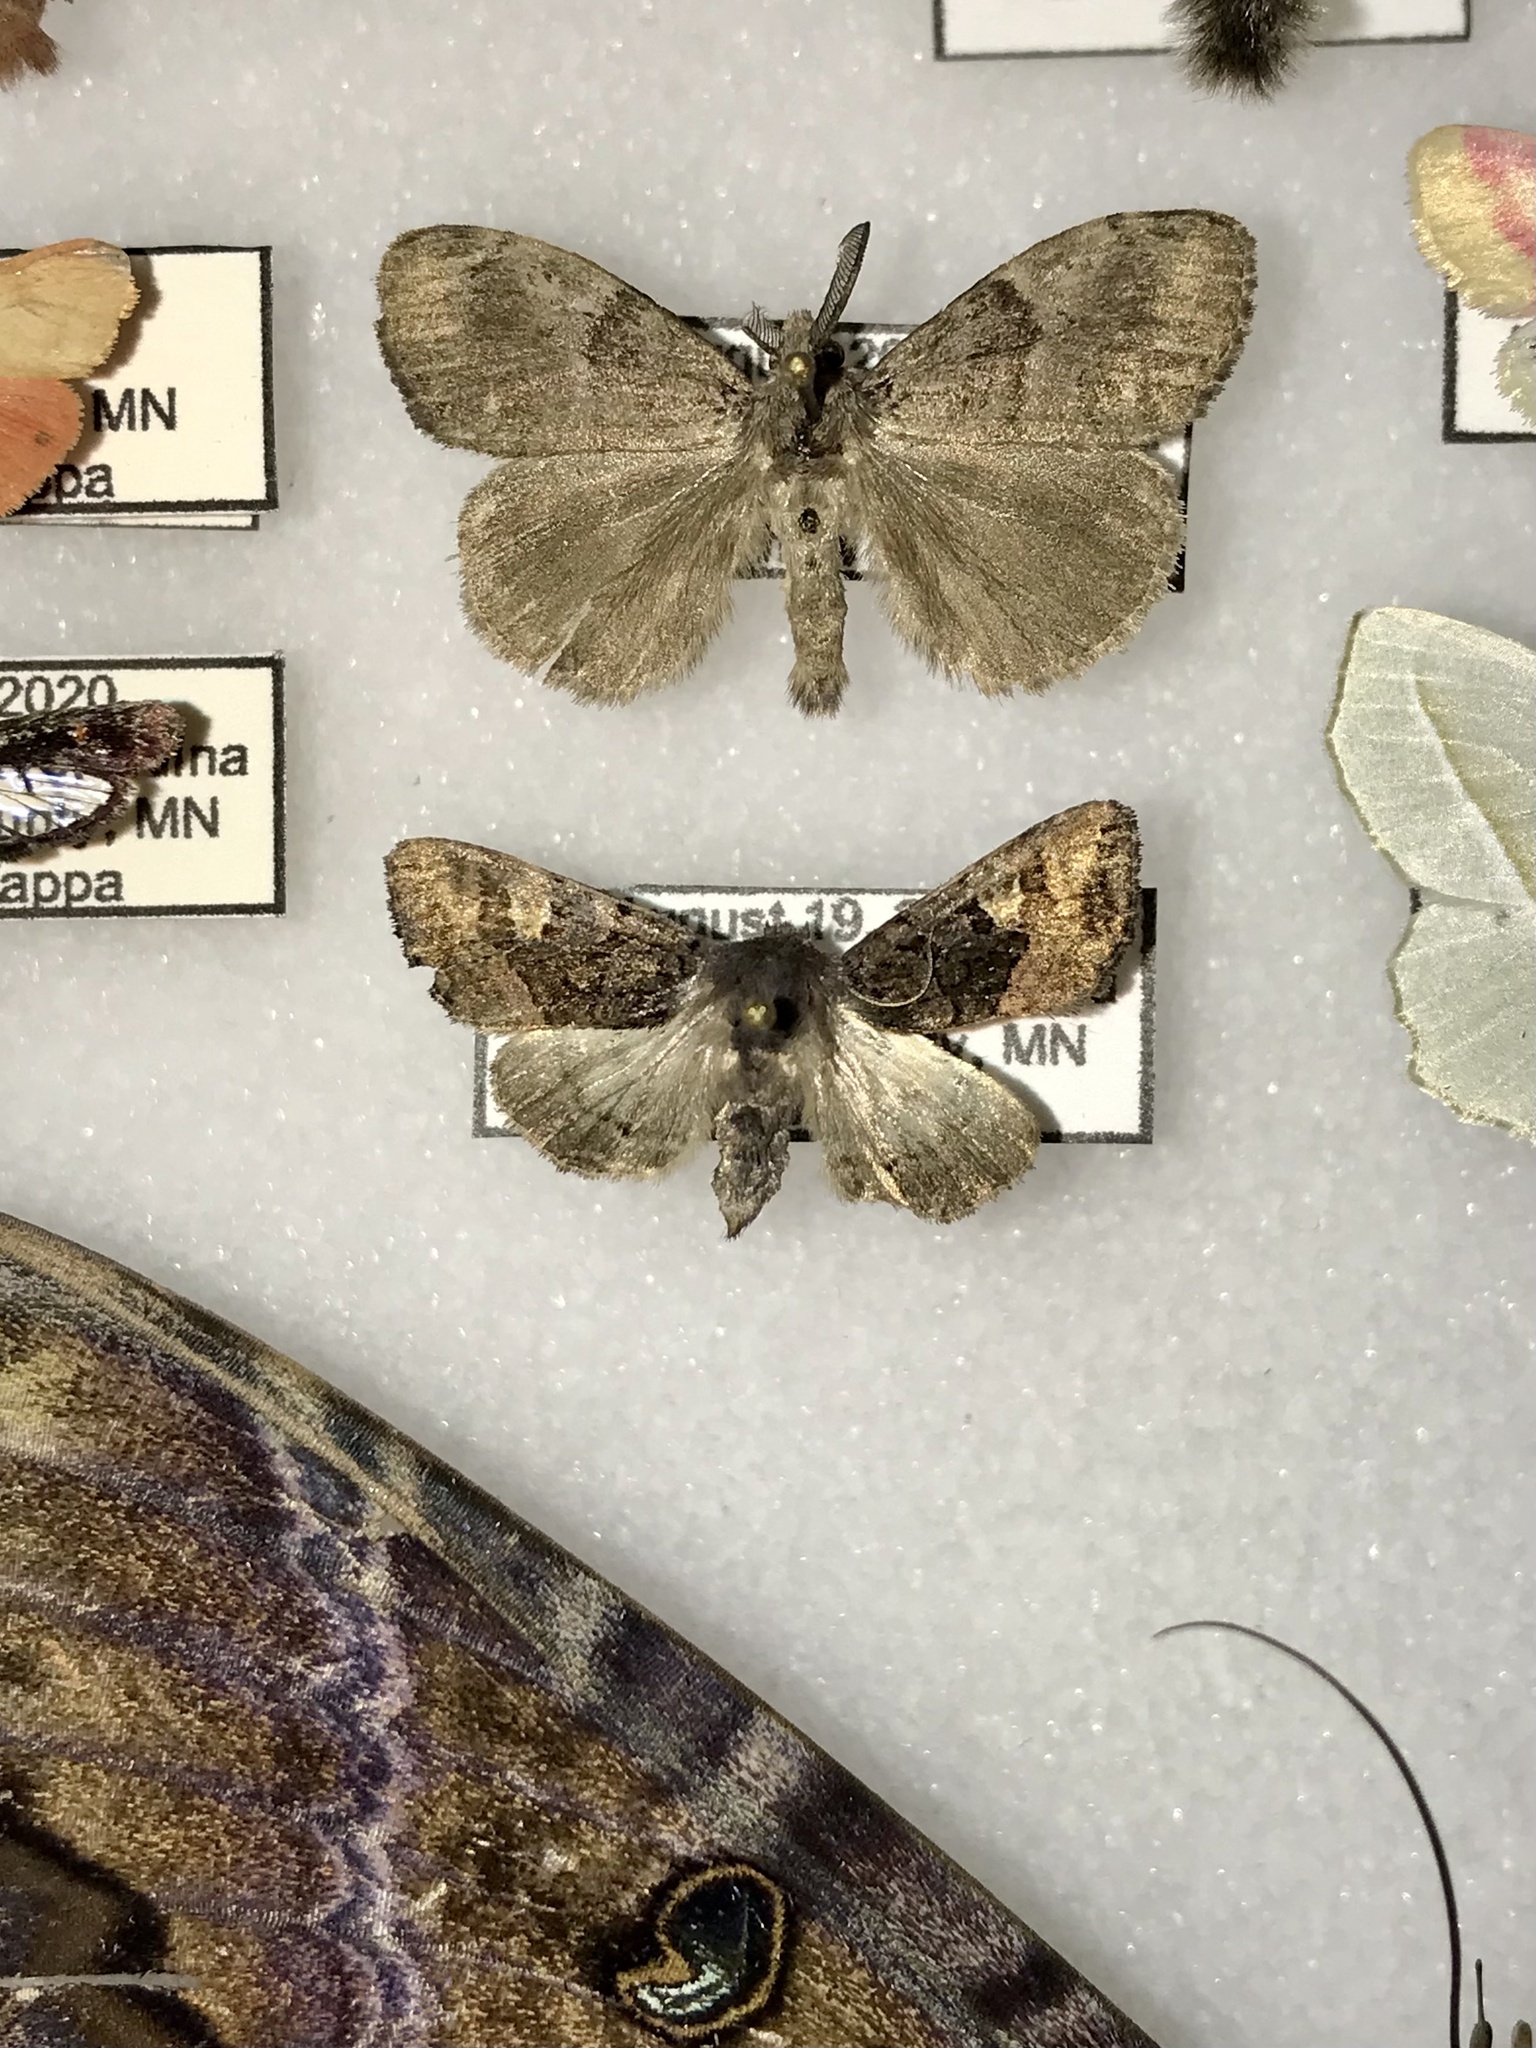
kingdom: Animalia
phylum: Arthropoda
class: Insecta
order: Lepidoptera
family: Noctuidae
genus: Euplexia
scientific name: Euplexia benesimilis
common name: American angle shades
